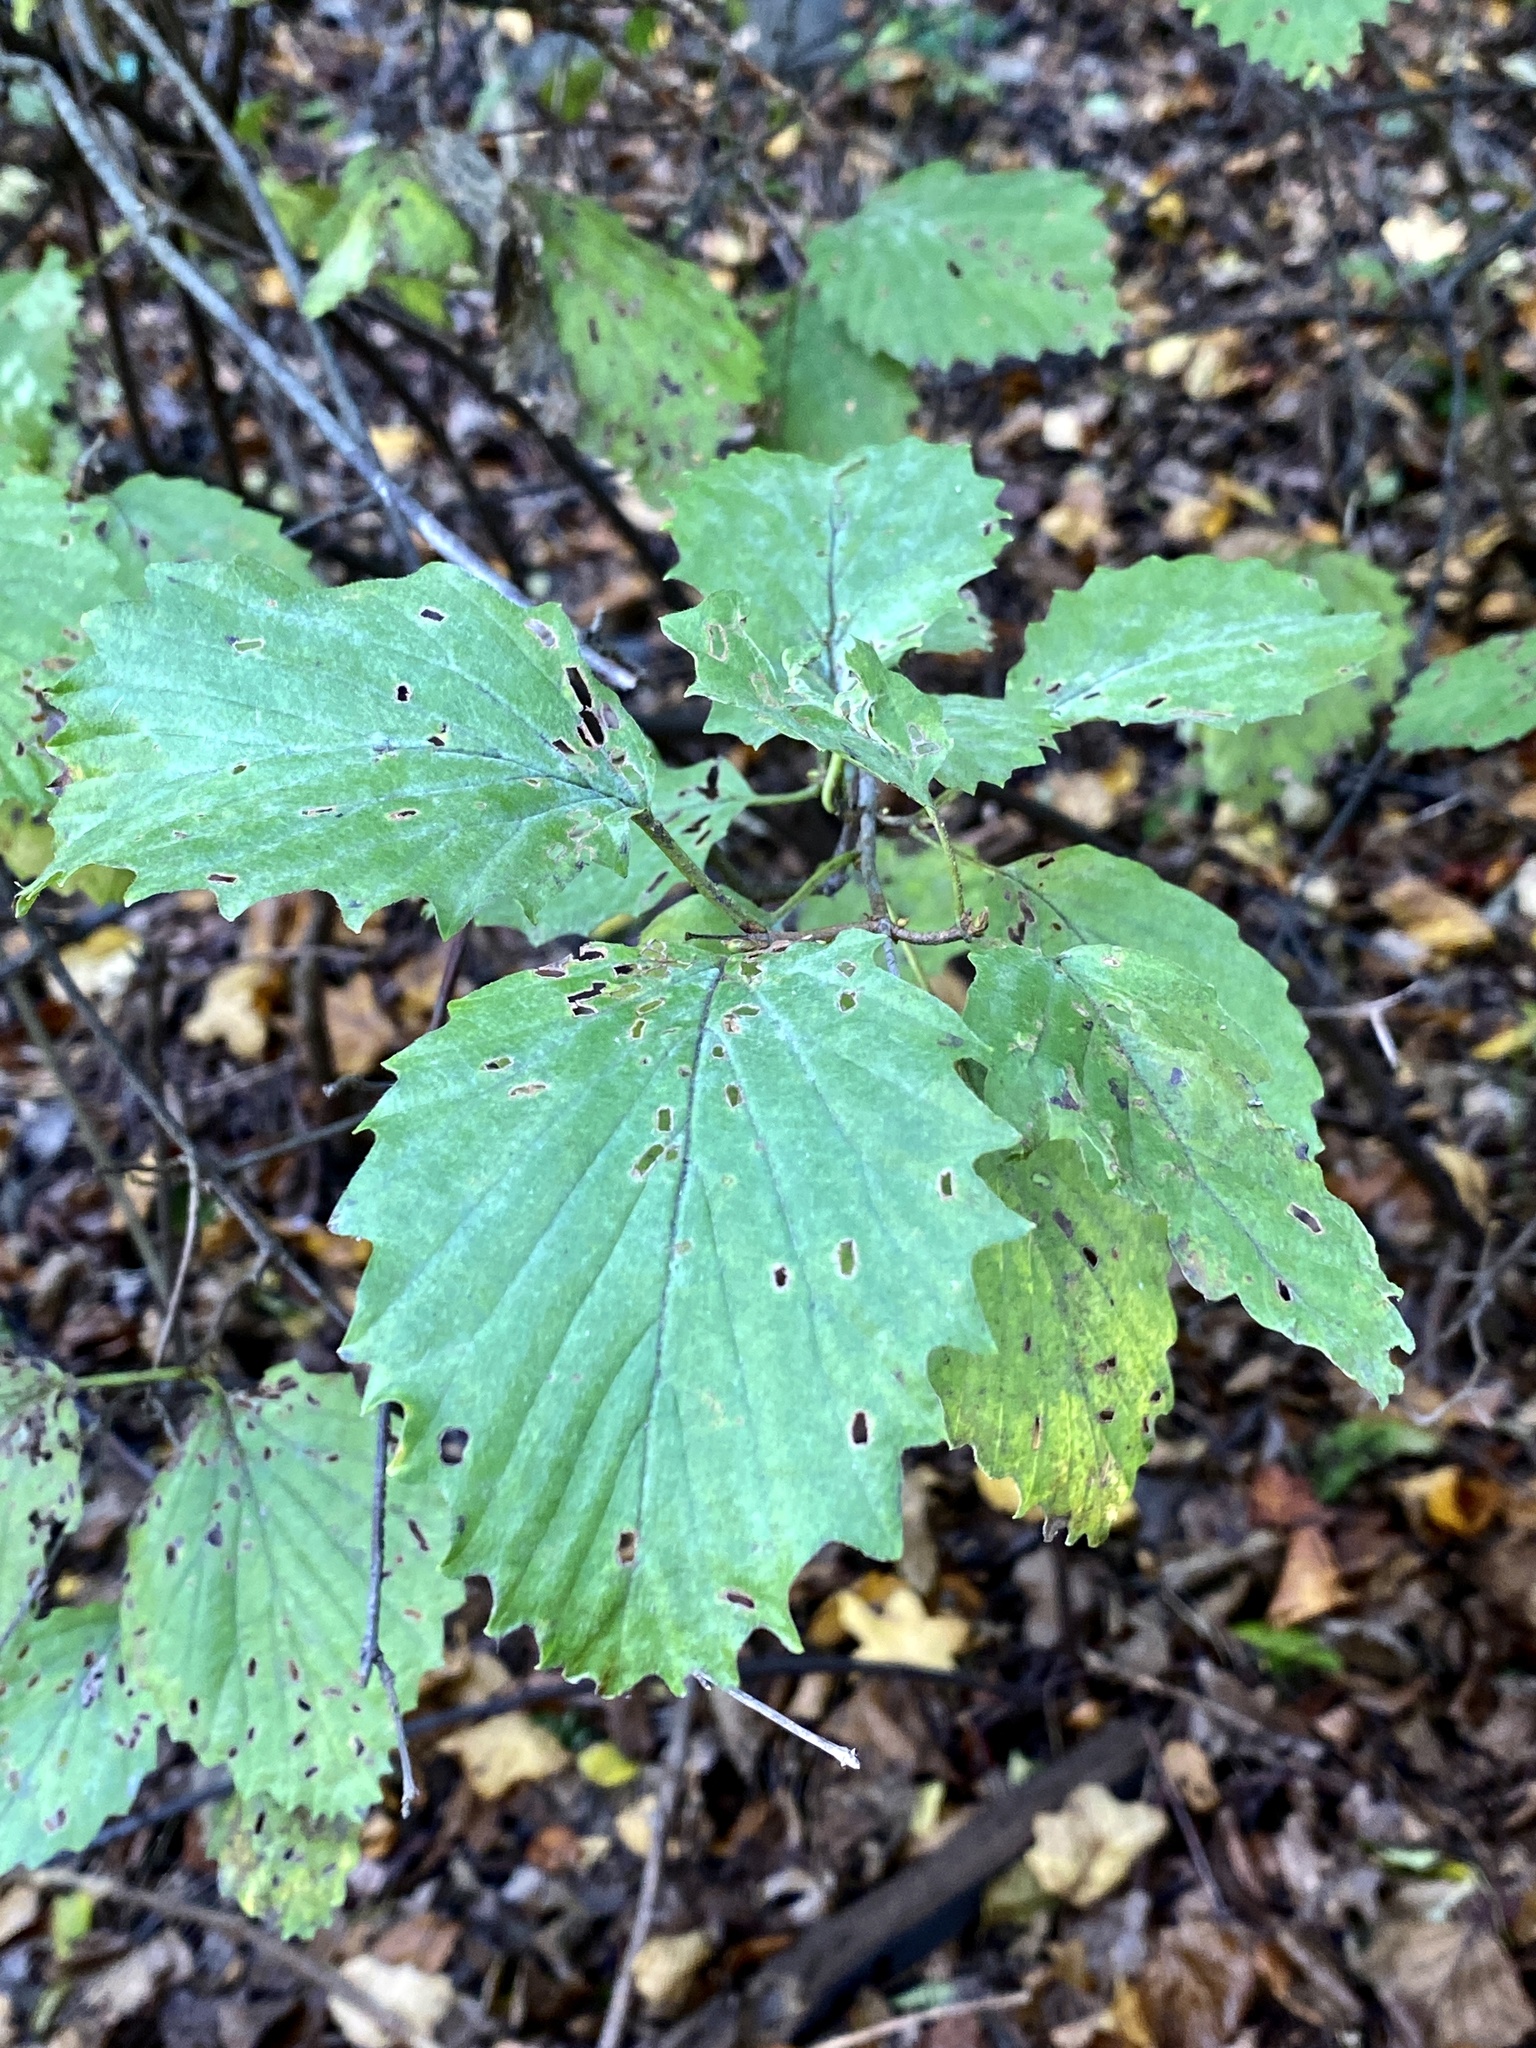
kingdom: Plantae
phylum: Tracheophyta
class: Magnoliopsida
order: Dipsacales
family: Viburnaceae
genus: Viburnum
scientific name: Viburnum dentatum
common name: Arrow-wood
